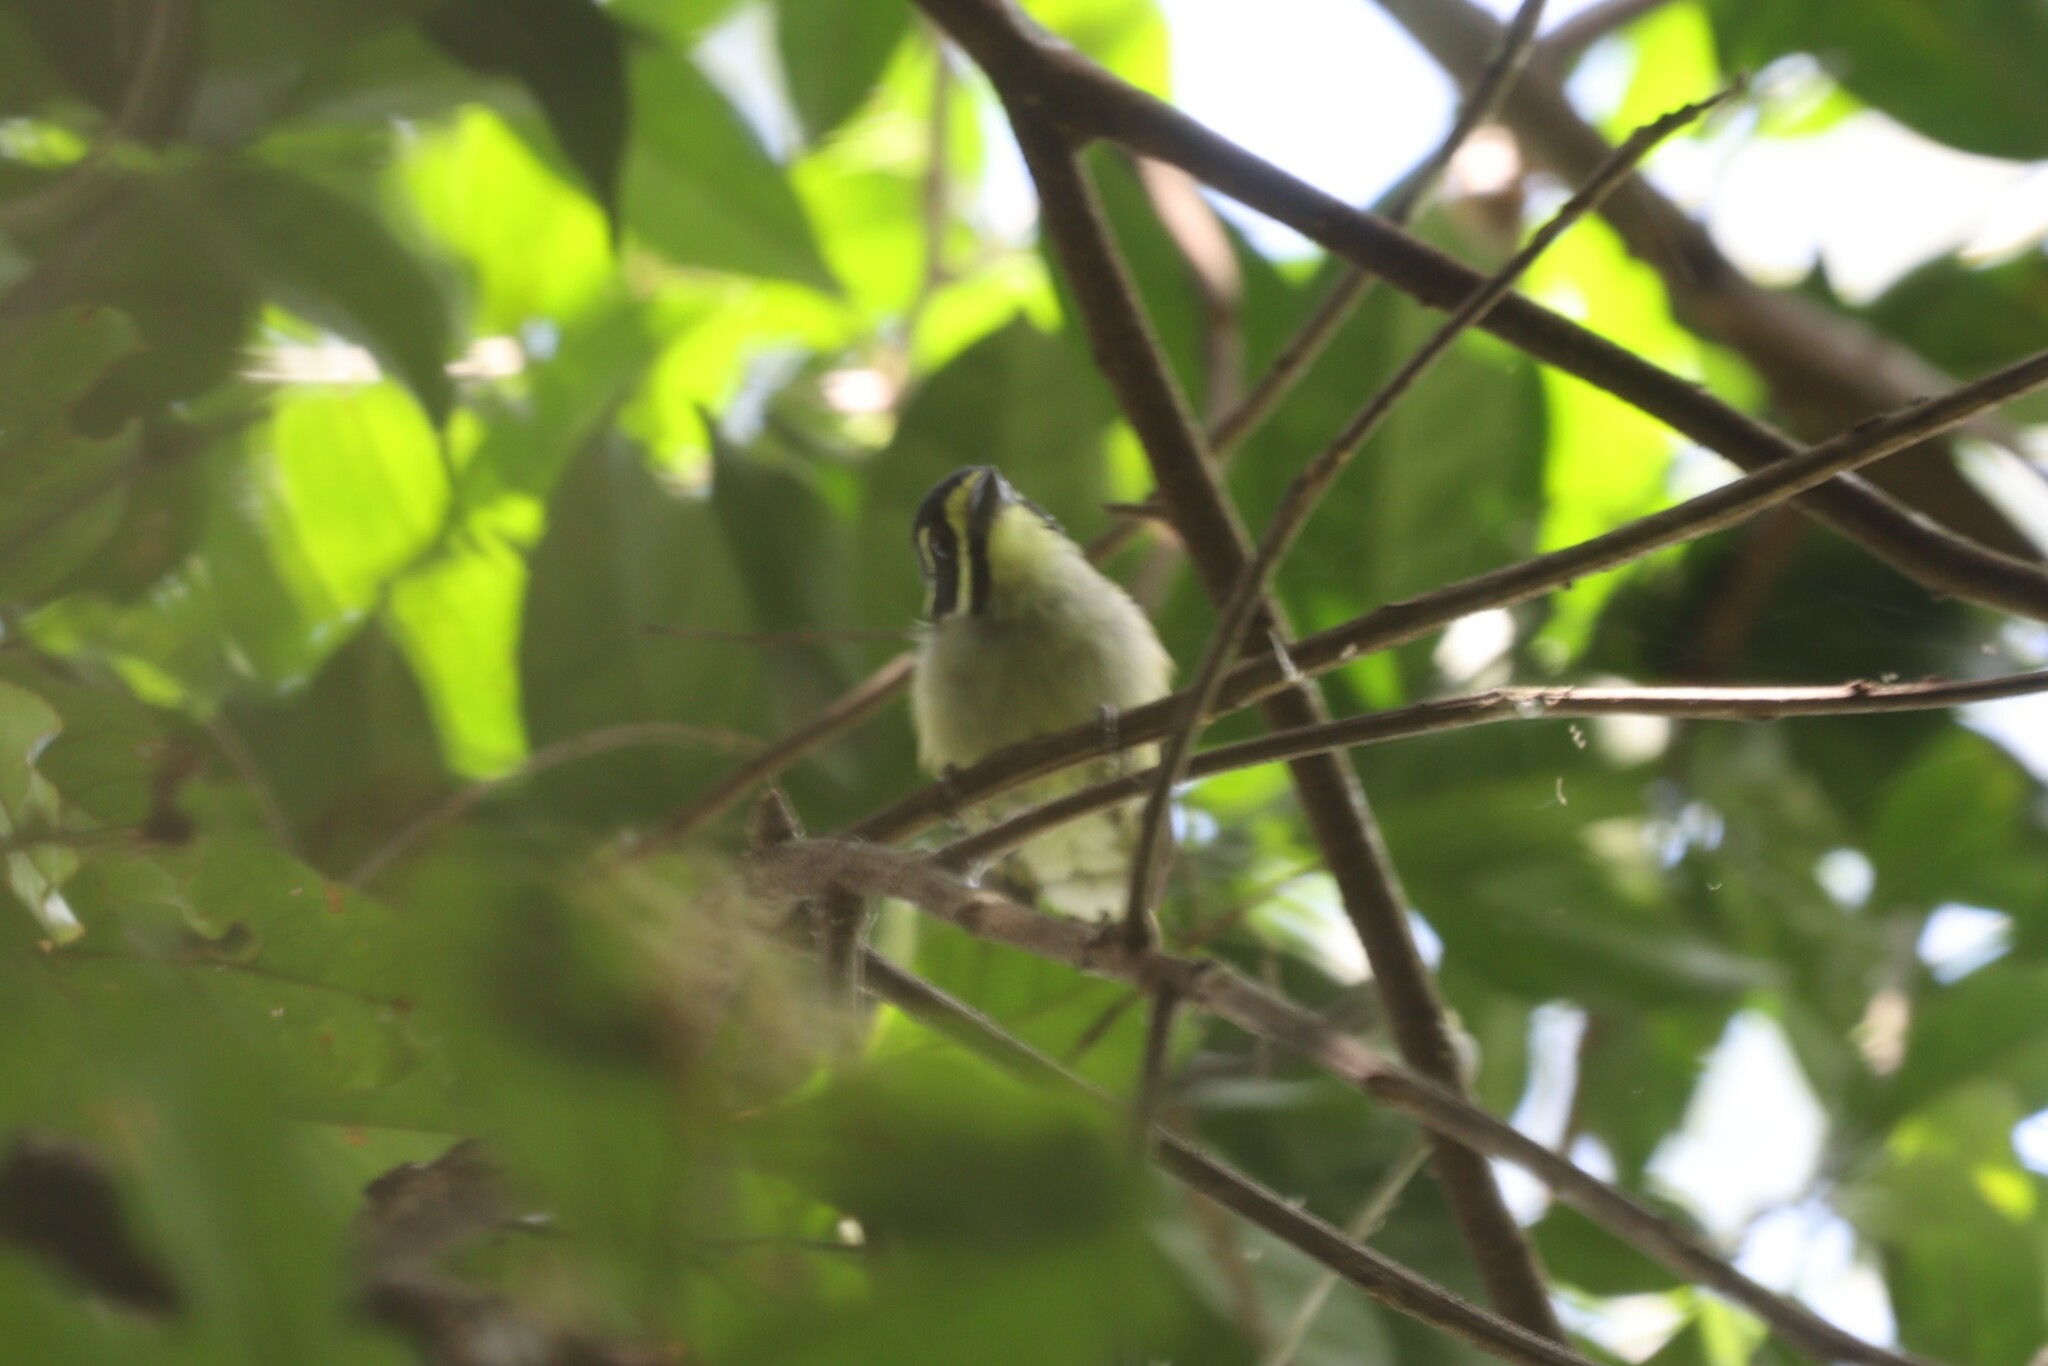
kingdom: Animalia
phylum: Chordata
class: Aves
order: Piciformes
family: Lybiidae
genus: Pogoniulus
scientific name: Pogoniulus subsulphureus
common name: Yellow-throated tinkerbird
